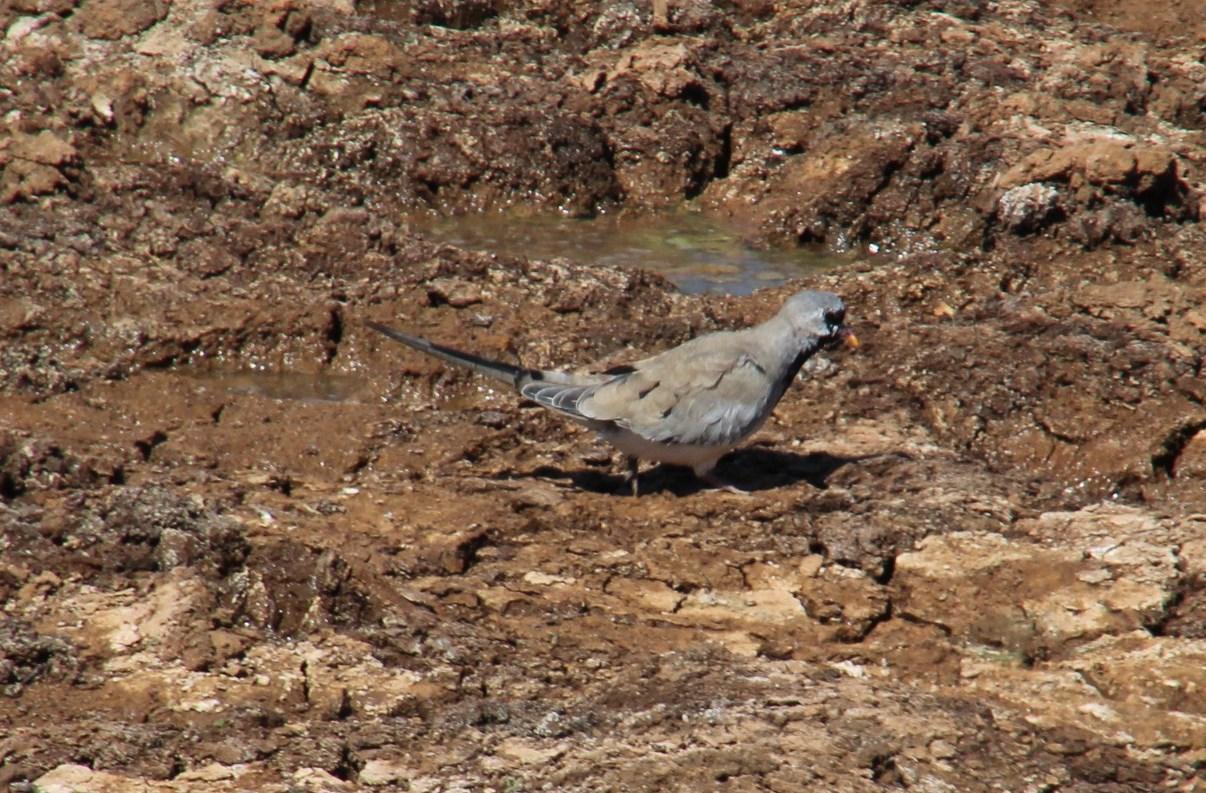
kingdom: Animalia
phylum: Chordata
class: Aves
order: Columbiformes
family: Columbidae
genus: Oena
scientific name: Oena capensis
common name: Namaqua dove
